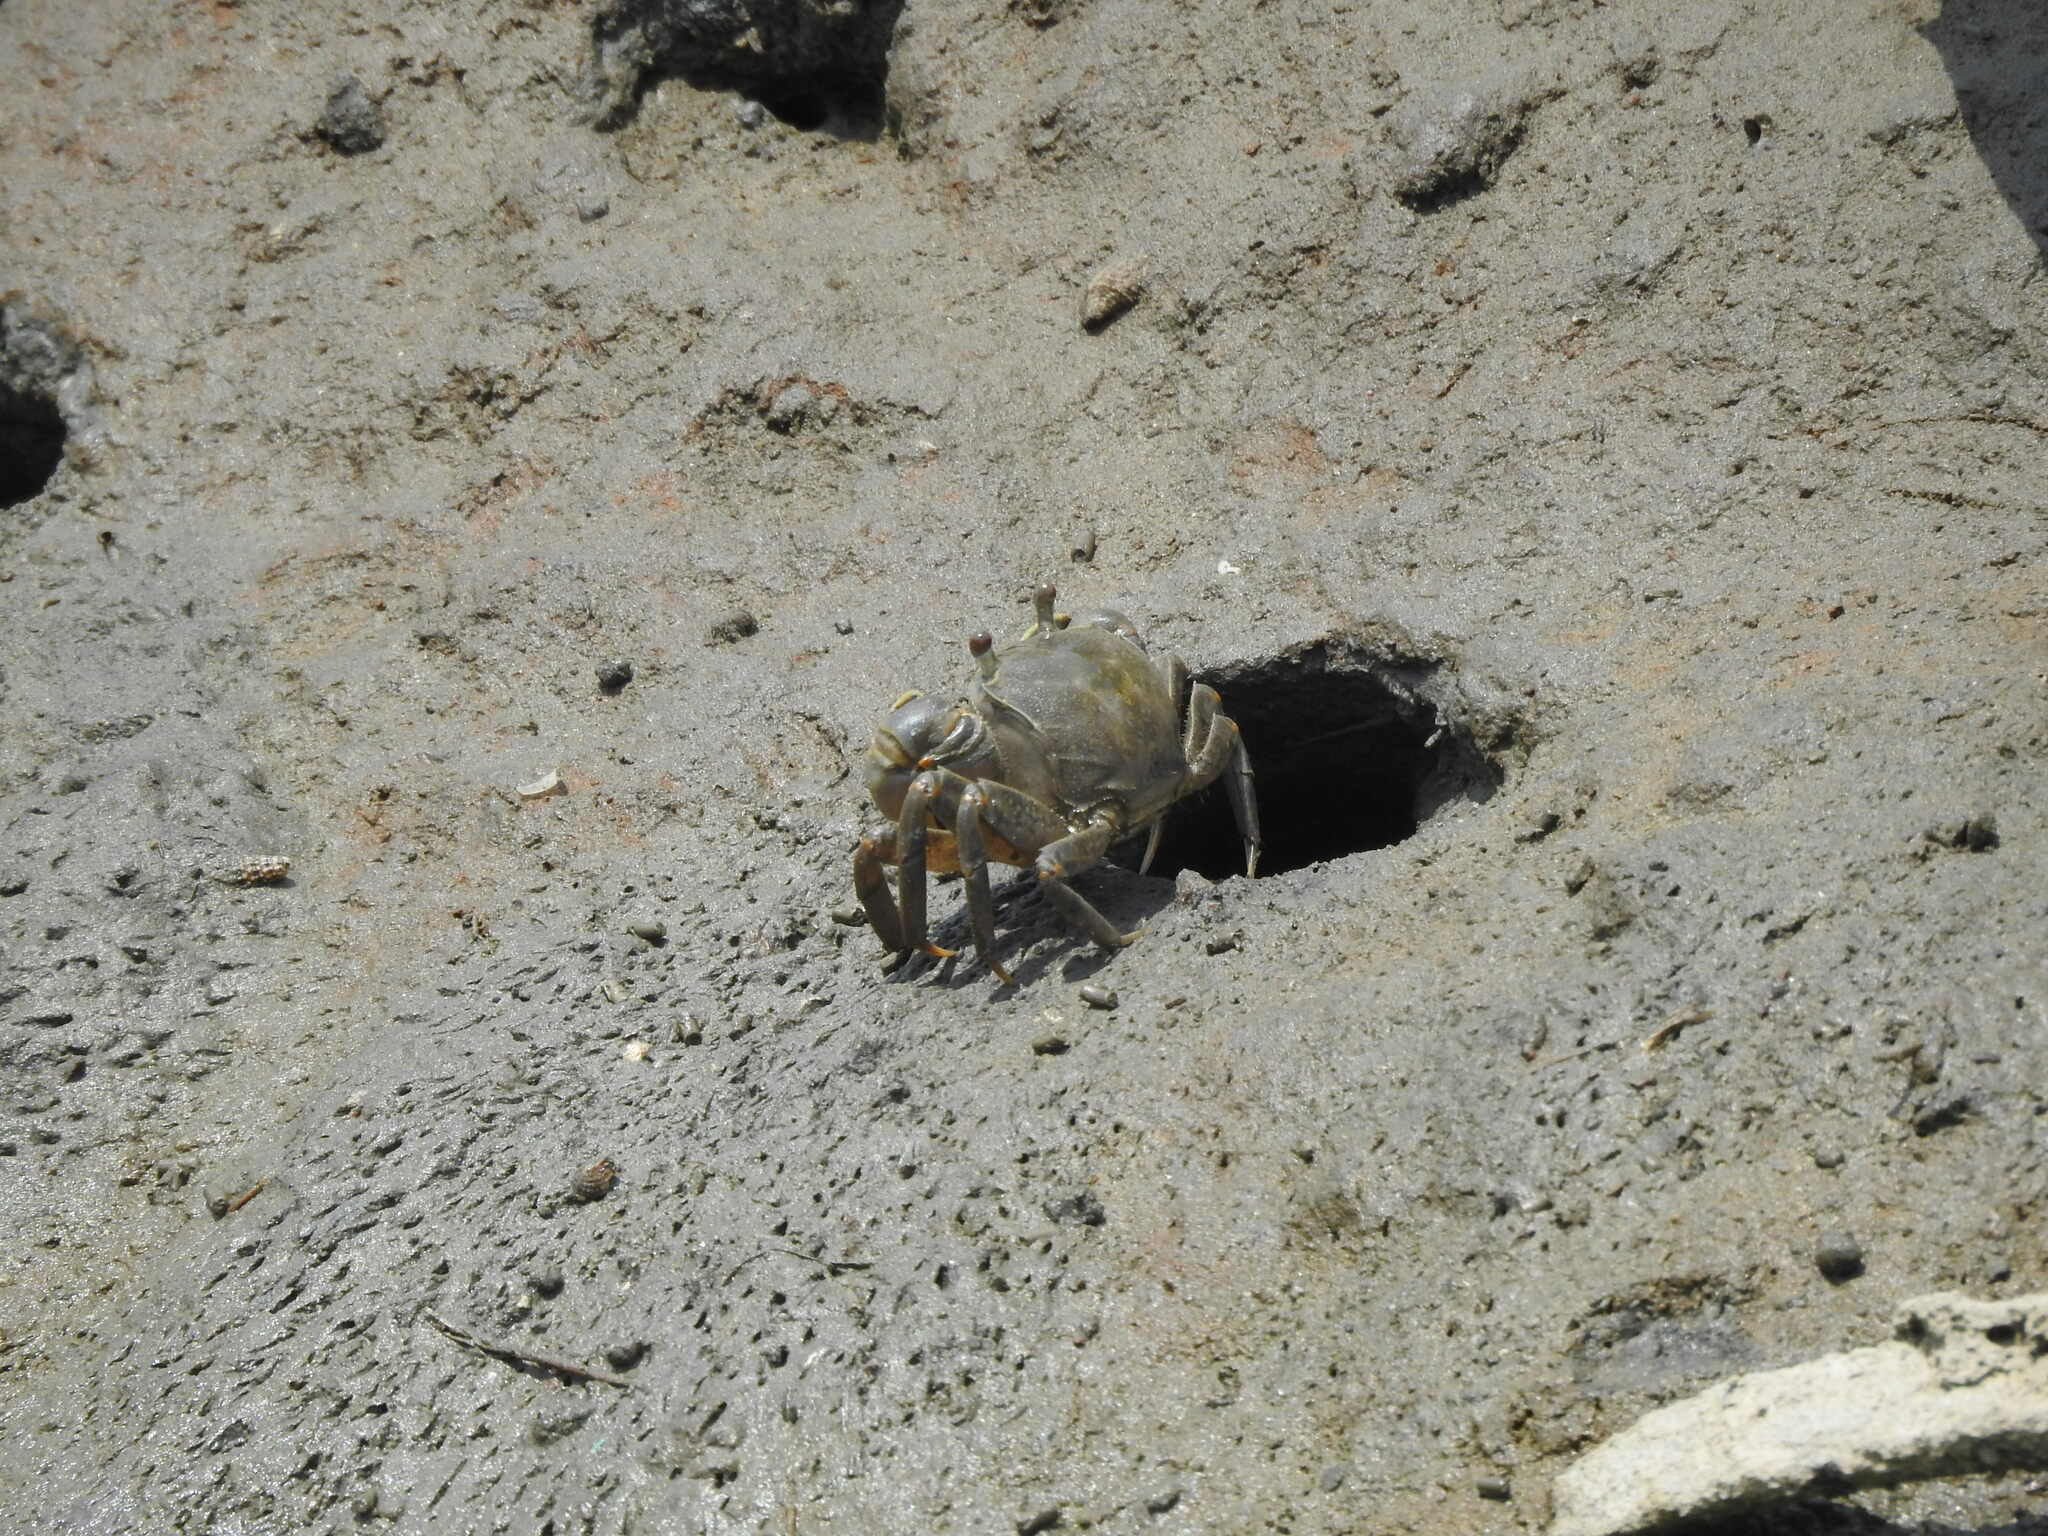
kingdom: Animalia
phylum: Arthropoda
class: Malacostraca
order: Decapoda
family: Varunidae
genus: Helice
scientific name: Helice formosensis
